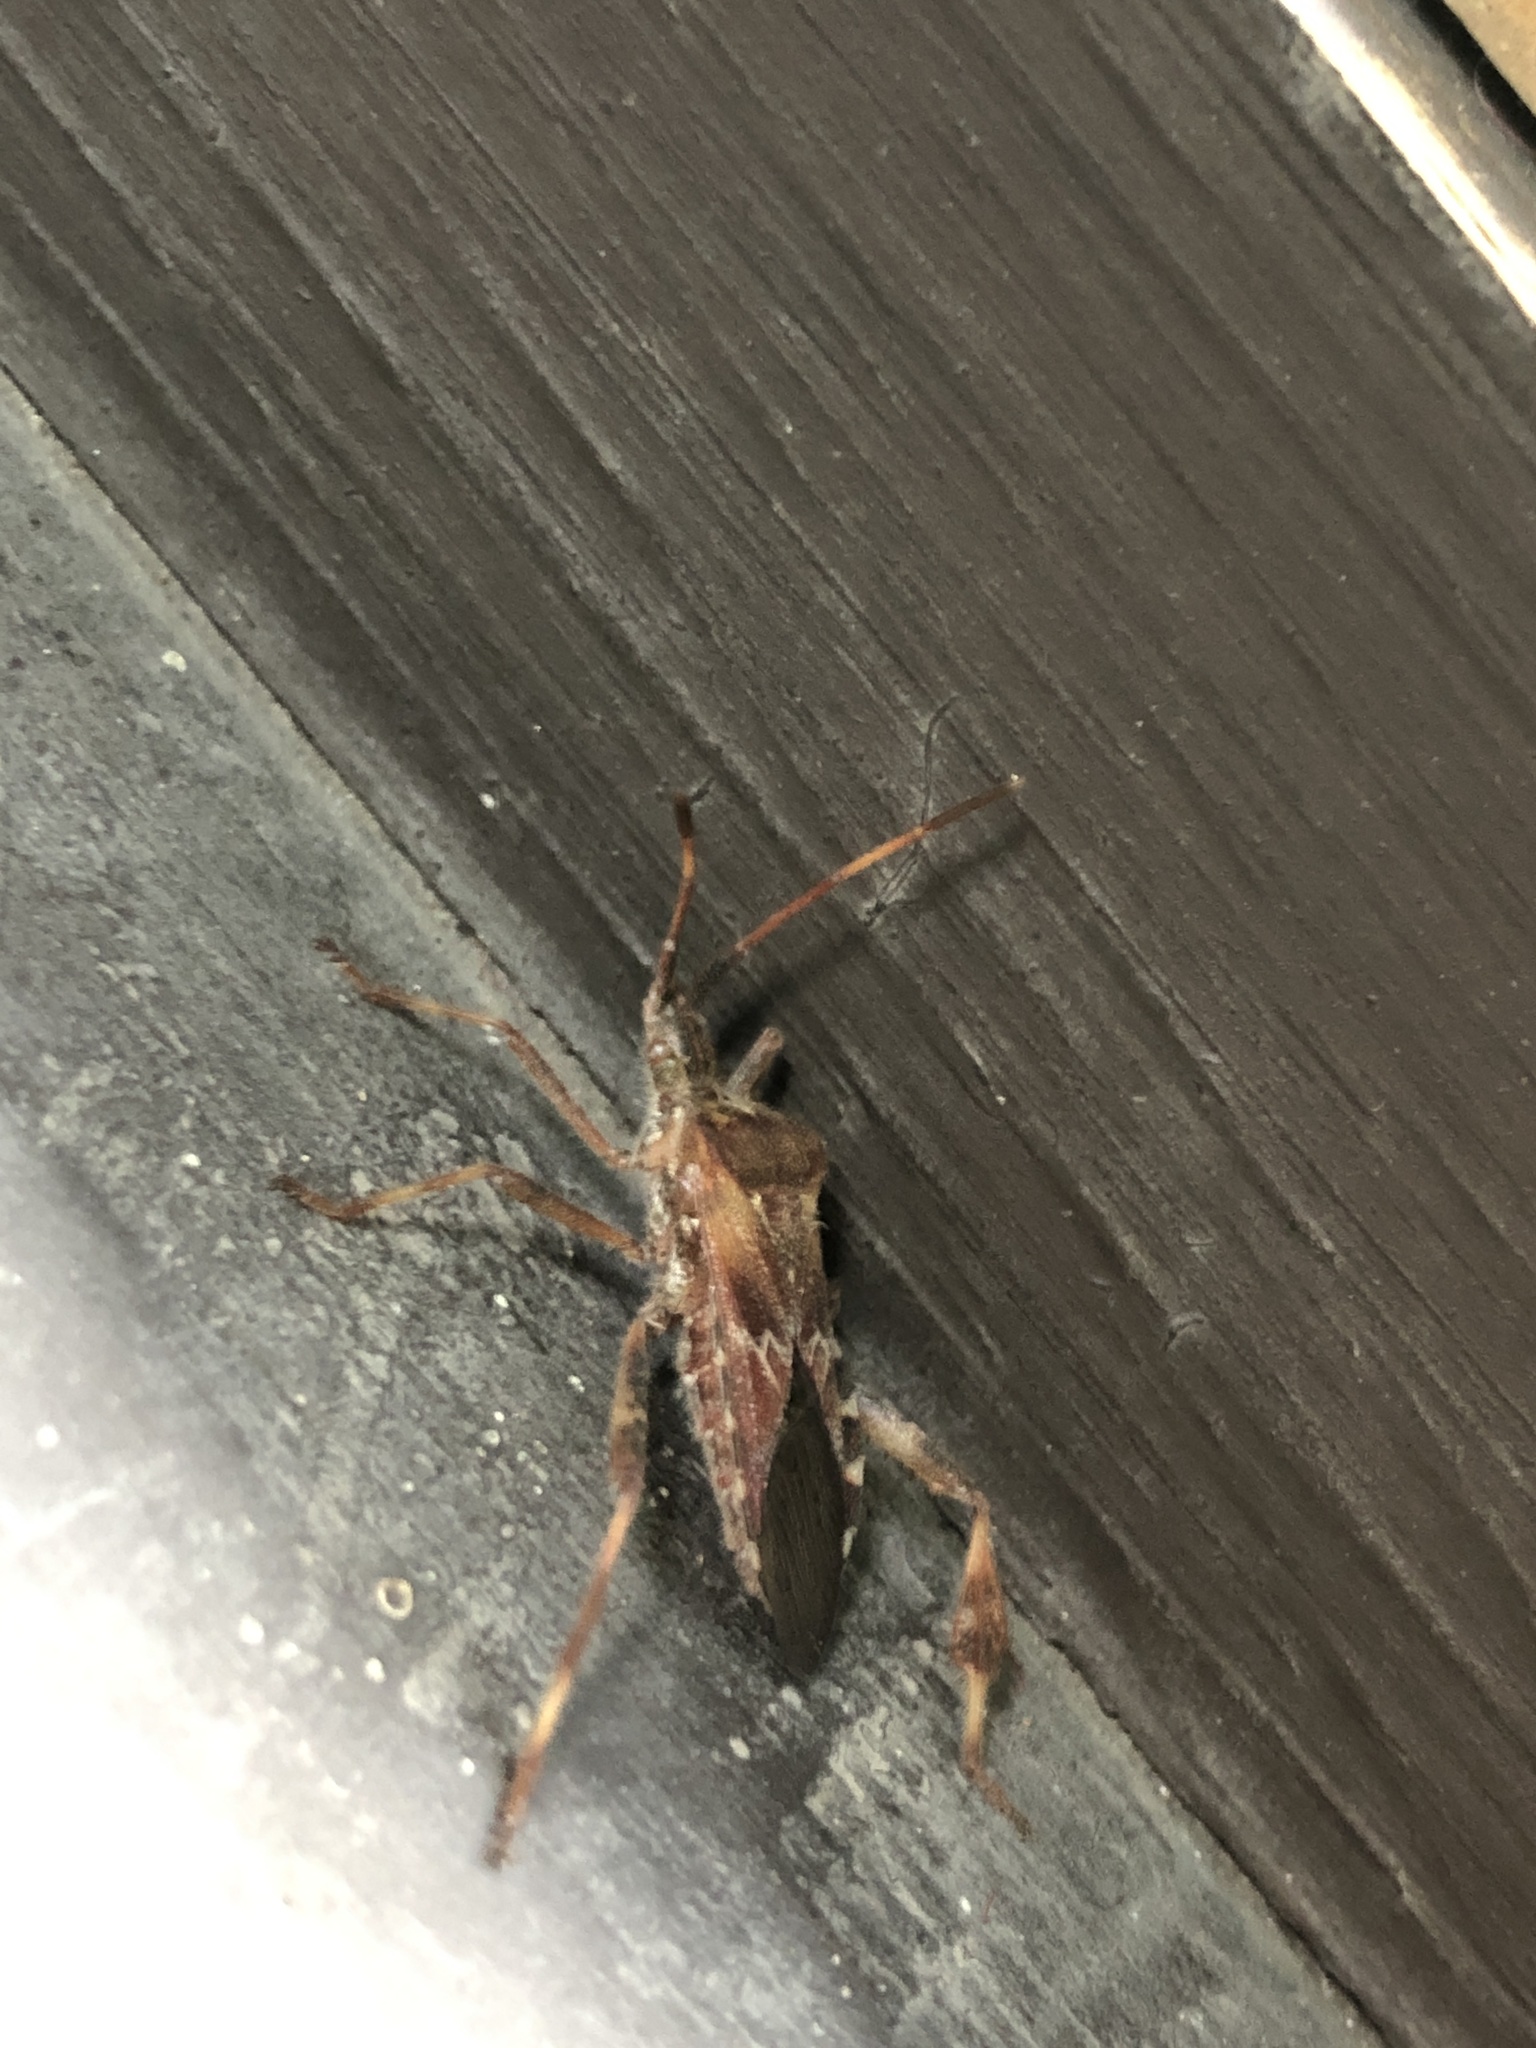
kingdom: Animalia
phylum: Arthropoda
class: Insecta
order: Hemiptera
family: Coreidae
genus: Leptoglossus
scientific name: Leptoglossus occidentalis
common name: Western conifer-seed bug
